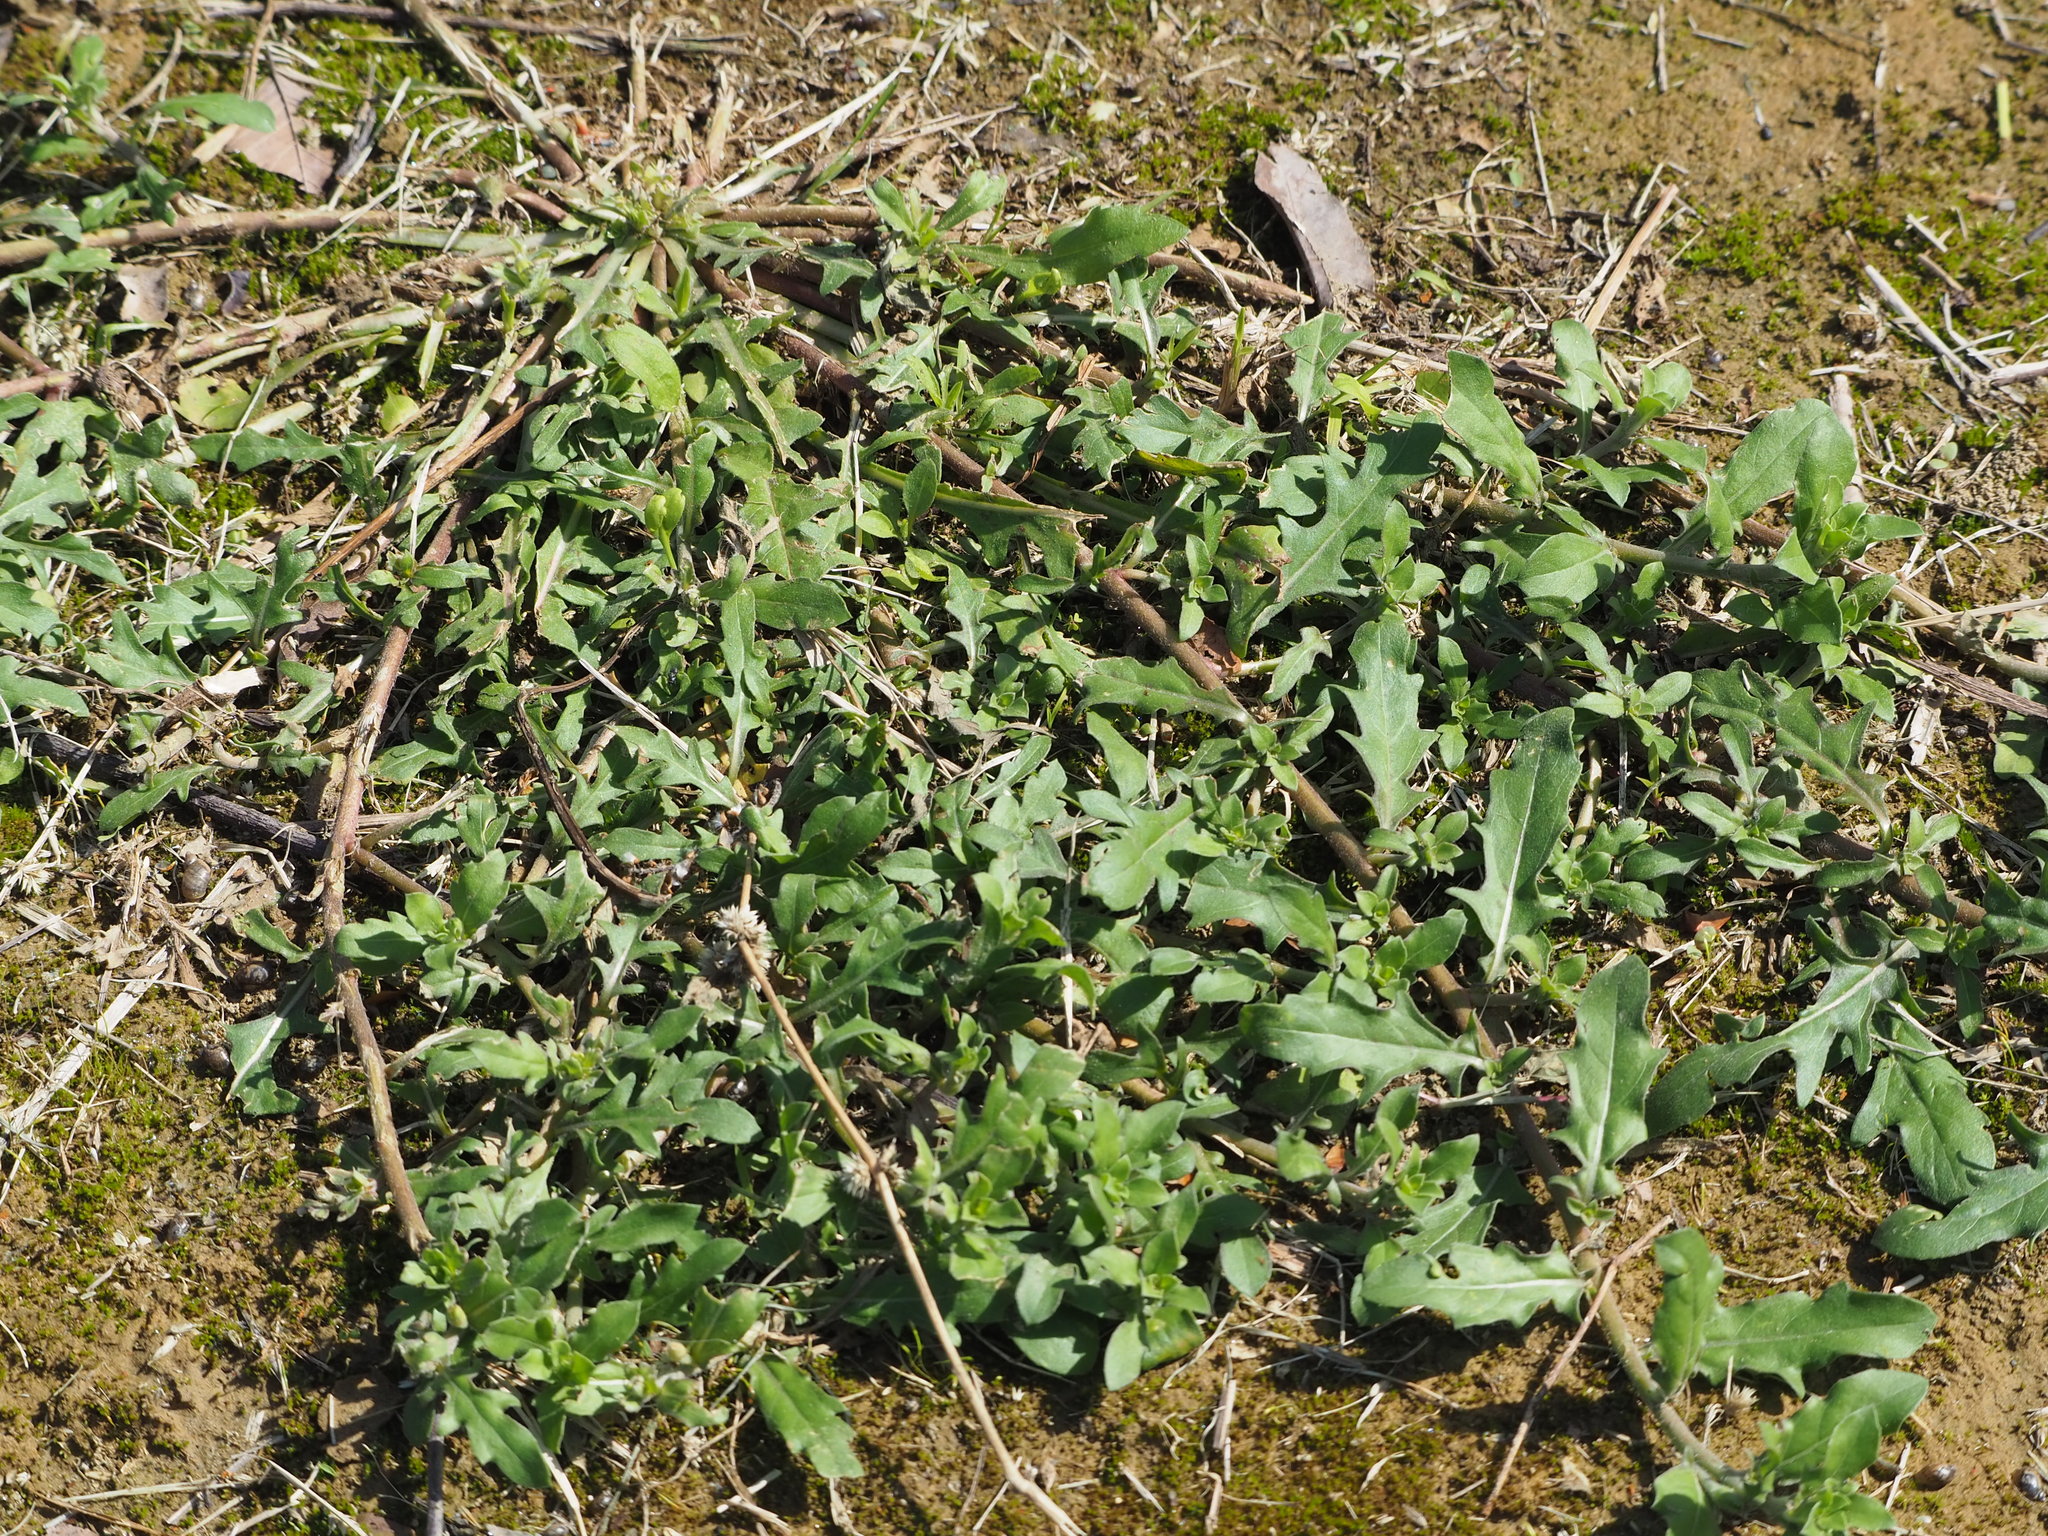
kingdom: Plantae
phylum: Tracheophyta
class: Magnoliopsida
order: Myrtales
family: Onagraceae
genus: Oenothera
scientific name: Oenothera laciniata
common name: Cut-leaved evening-primrose
